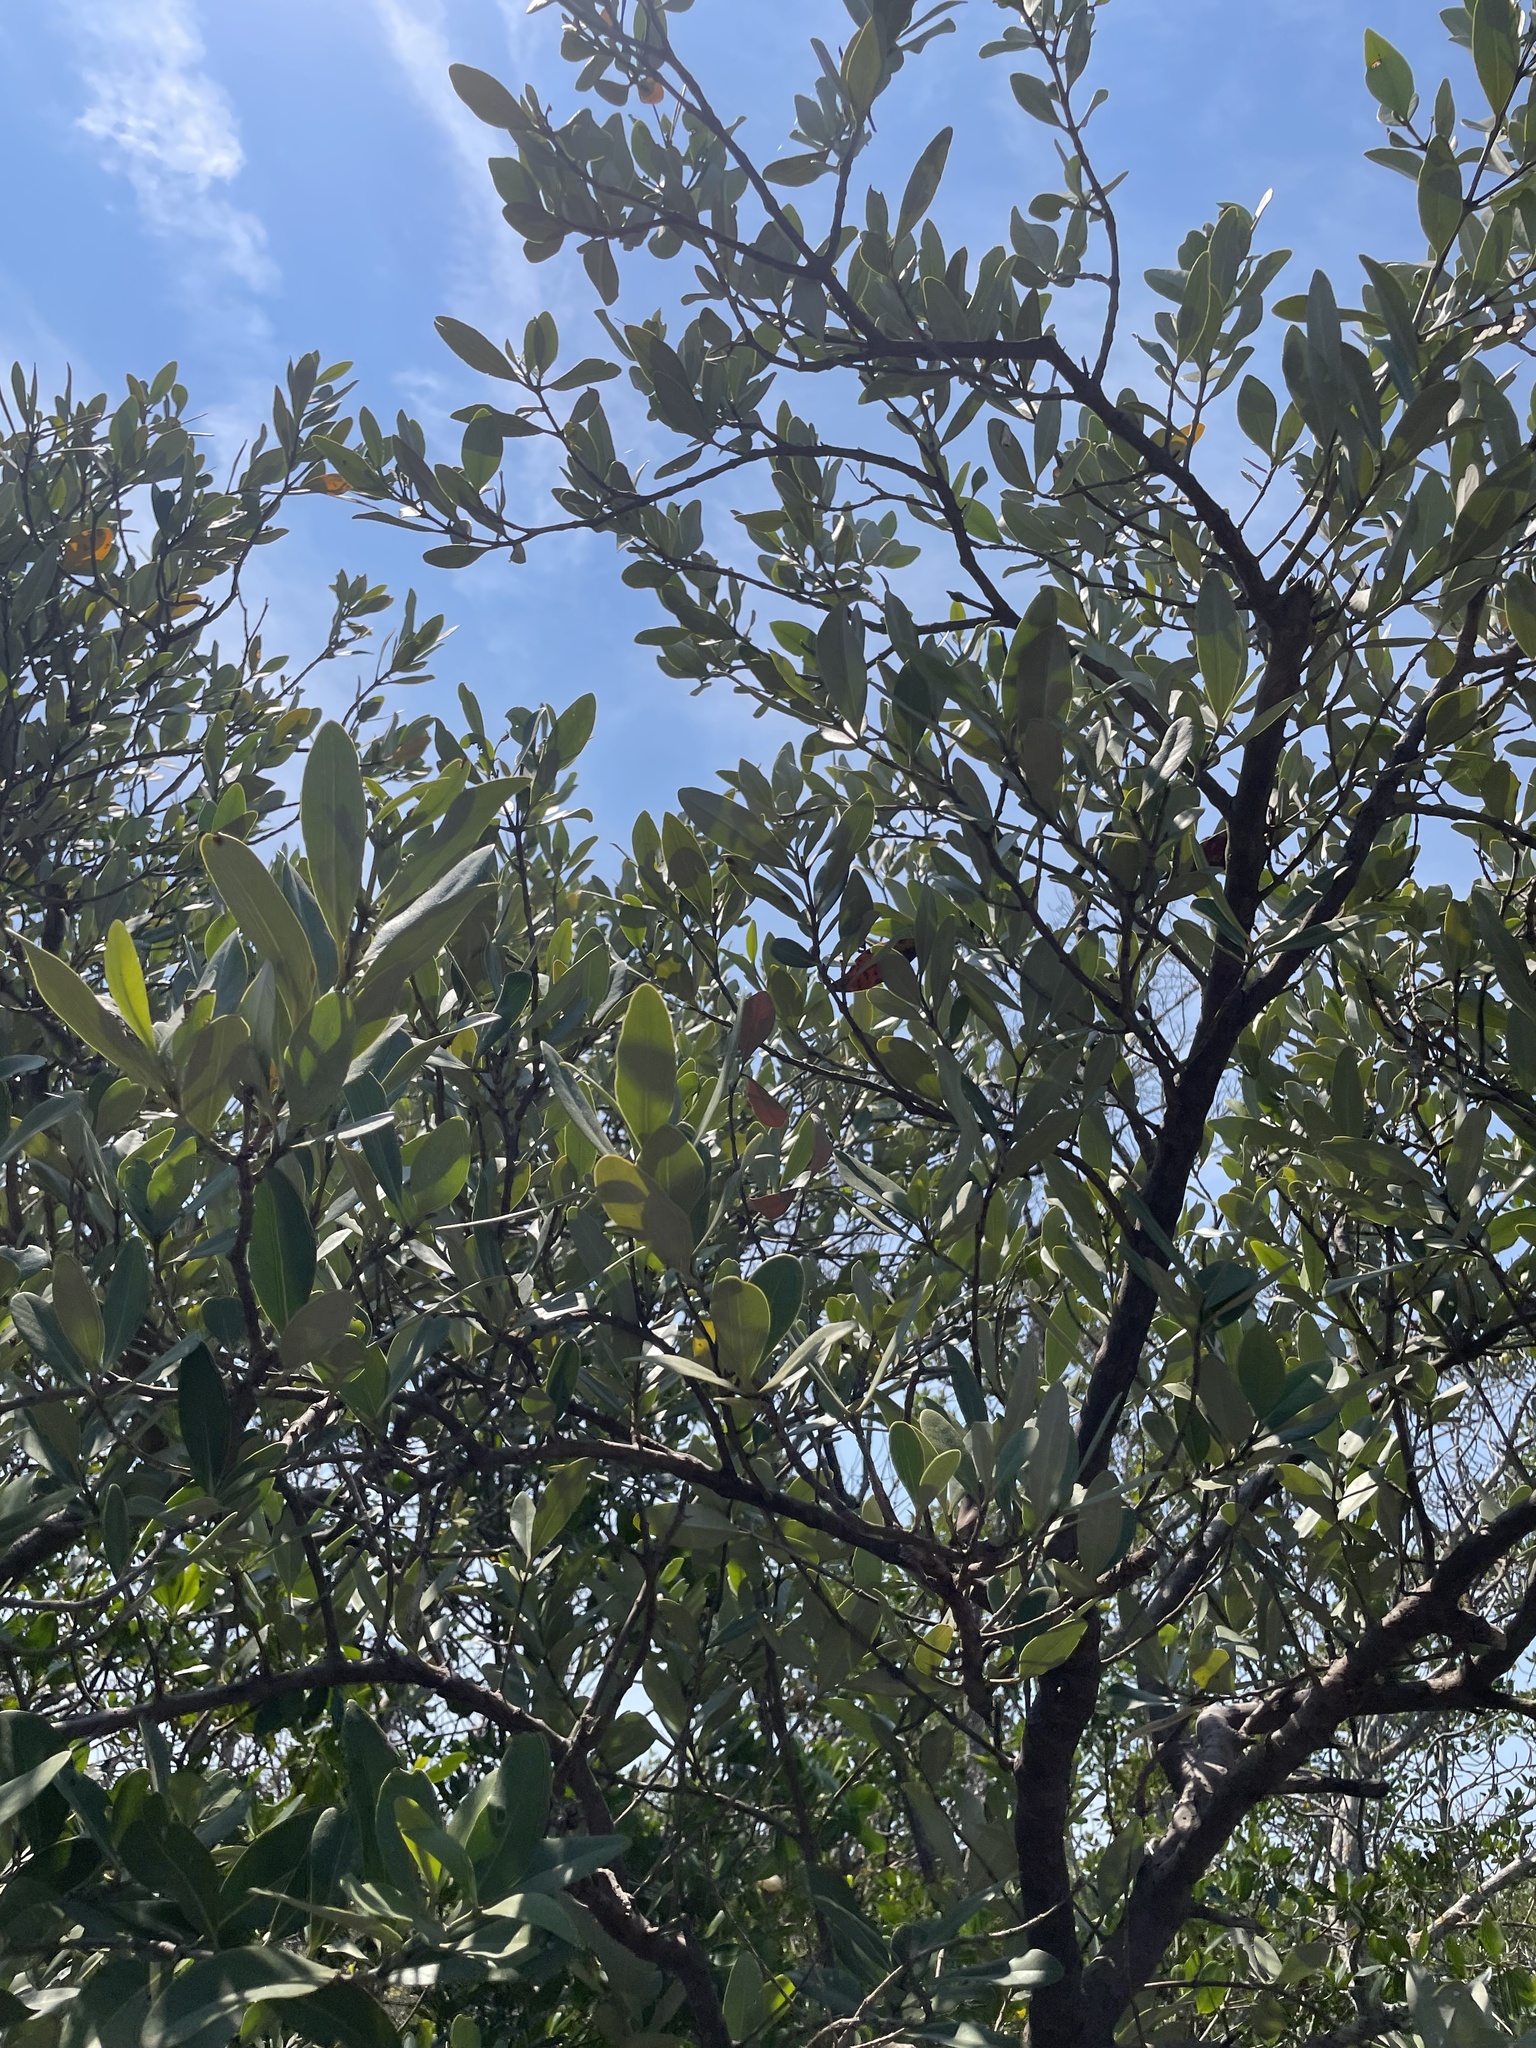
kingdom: Plantae
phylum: Tracheophyta
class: Magnoliopsida
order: Lamiales
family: Acanthaceae
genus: Avicennia
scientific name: Avicennia germinans
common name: Black mangrove
